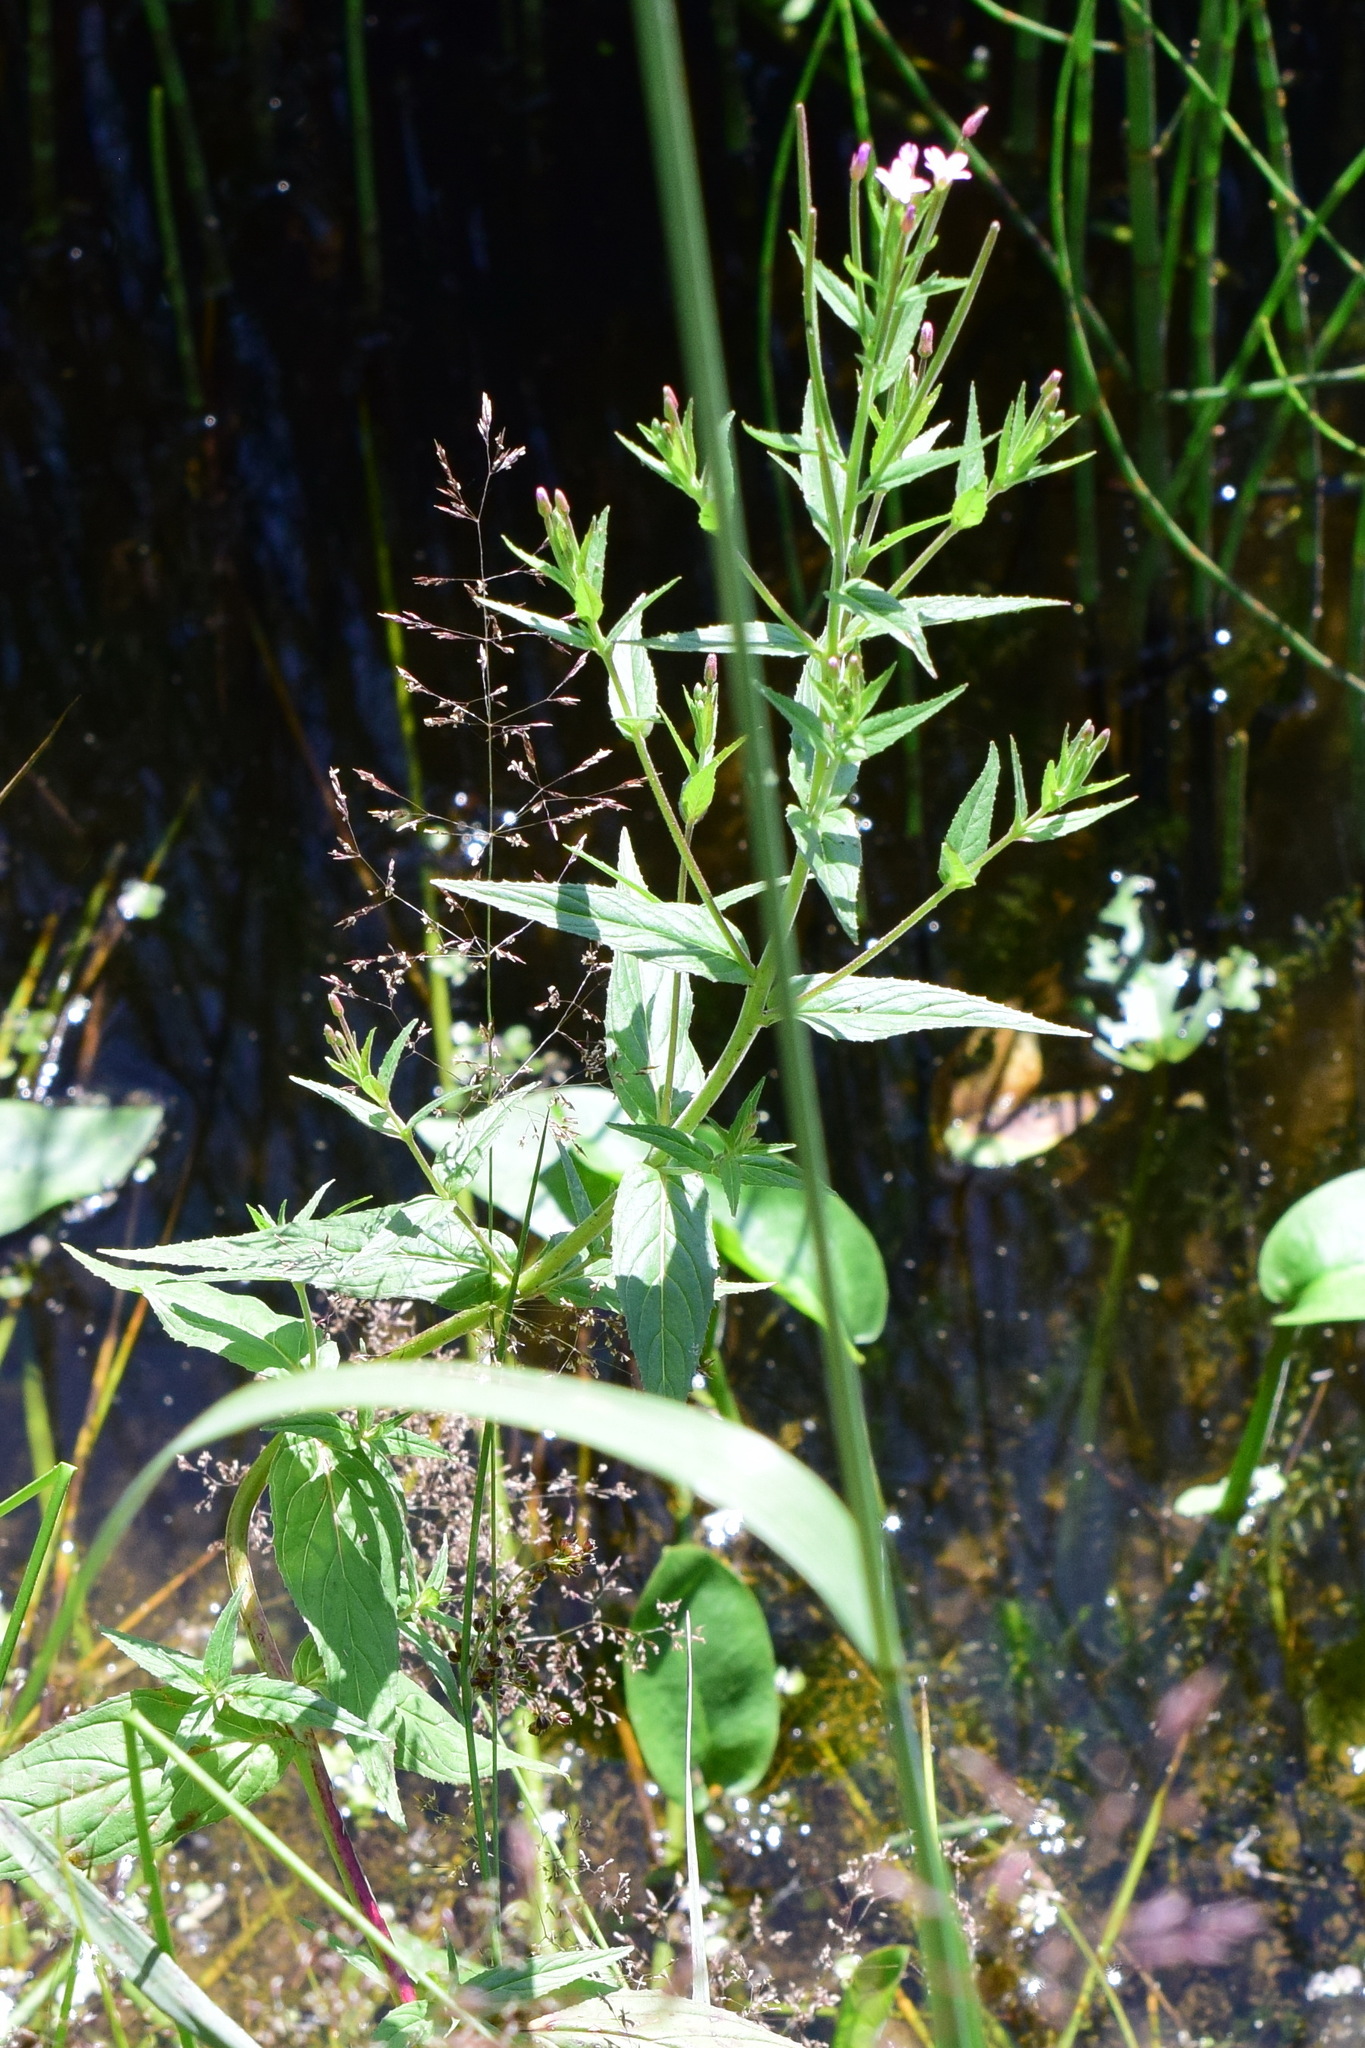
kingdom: Plantae
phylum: Tracheophyta
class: Magnoliopsida
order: Myrtales
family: Onagraceae
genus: Epilobium
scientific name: Epilobium ciliatum
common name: American willowherb
